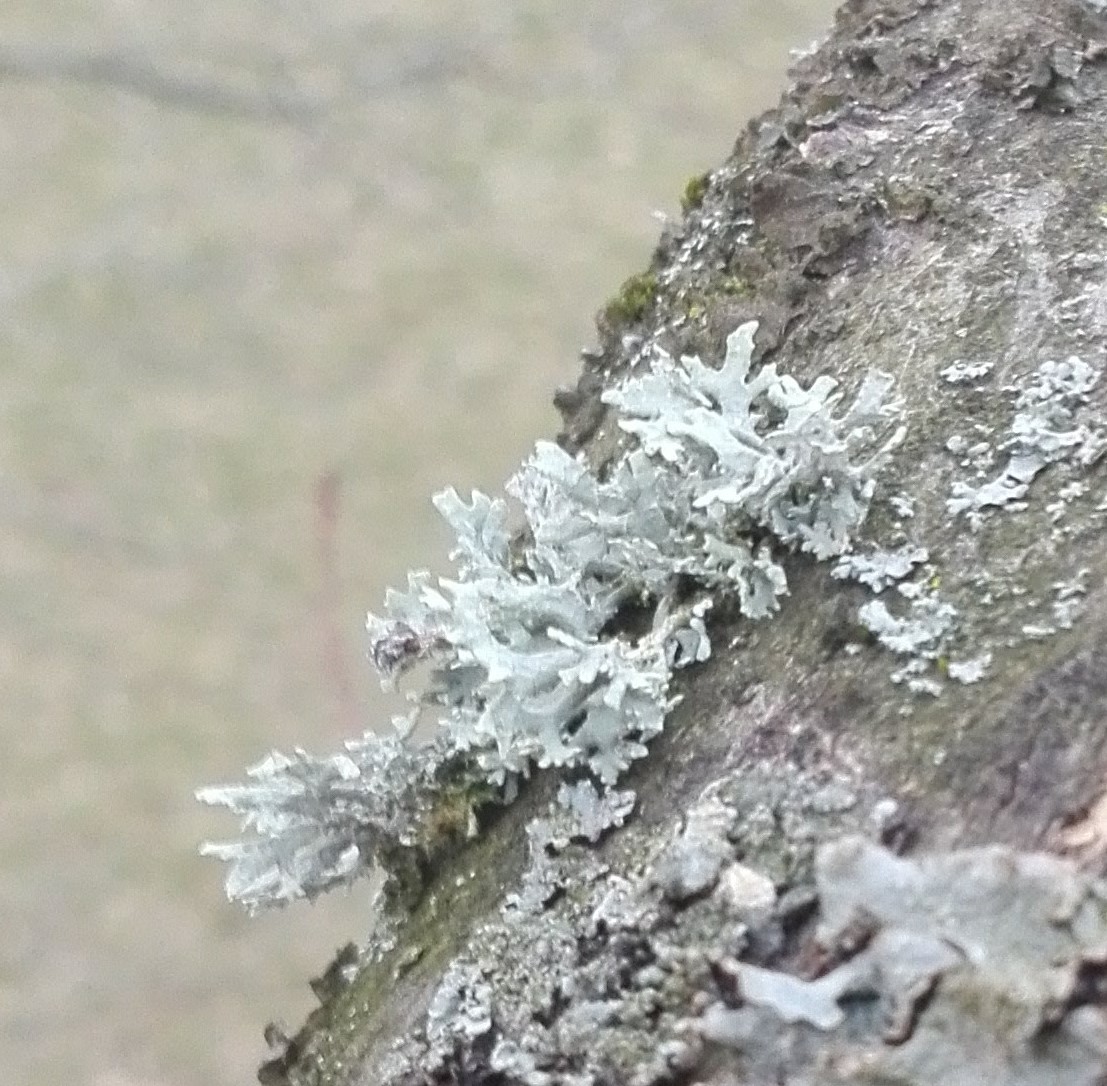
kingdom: Fungi
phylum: Ascomycota
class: Lecanoromycetes
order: Lecanorales
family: Parmeliaceae
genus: Evernia
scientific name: Evernia prunastri
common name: Oak moss
